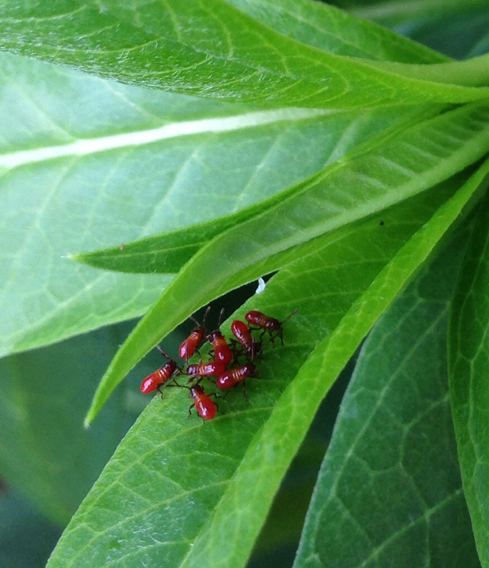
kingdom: Animalia
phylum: Arthropoda
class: Insecta
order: Hemiptera
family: Lygaeidae
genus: Oncopeltus
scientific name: Oncopeltus fasciatus
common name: Large milkweed bug
